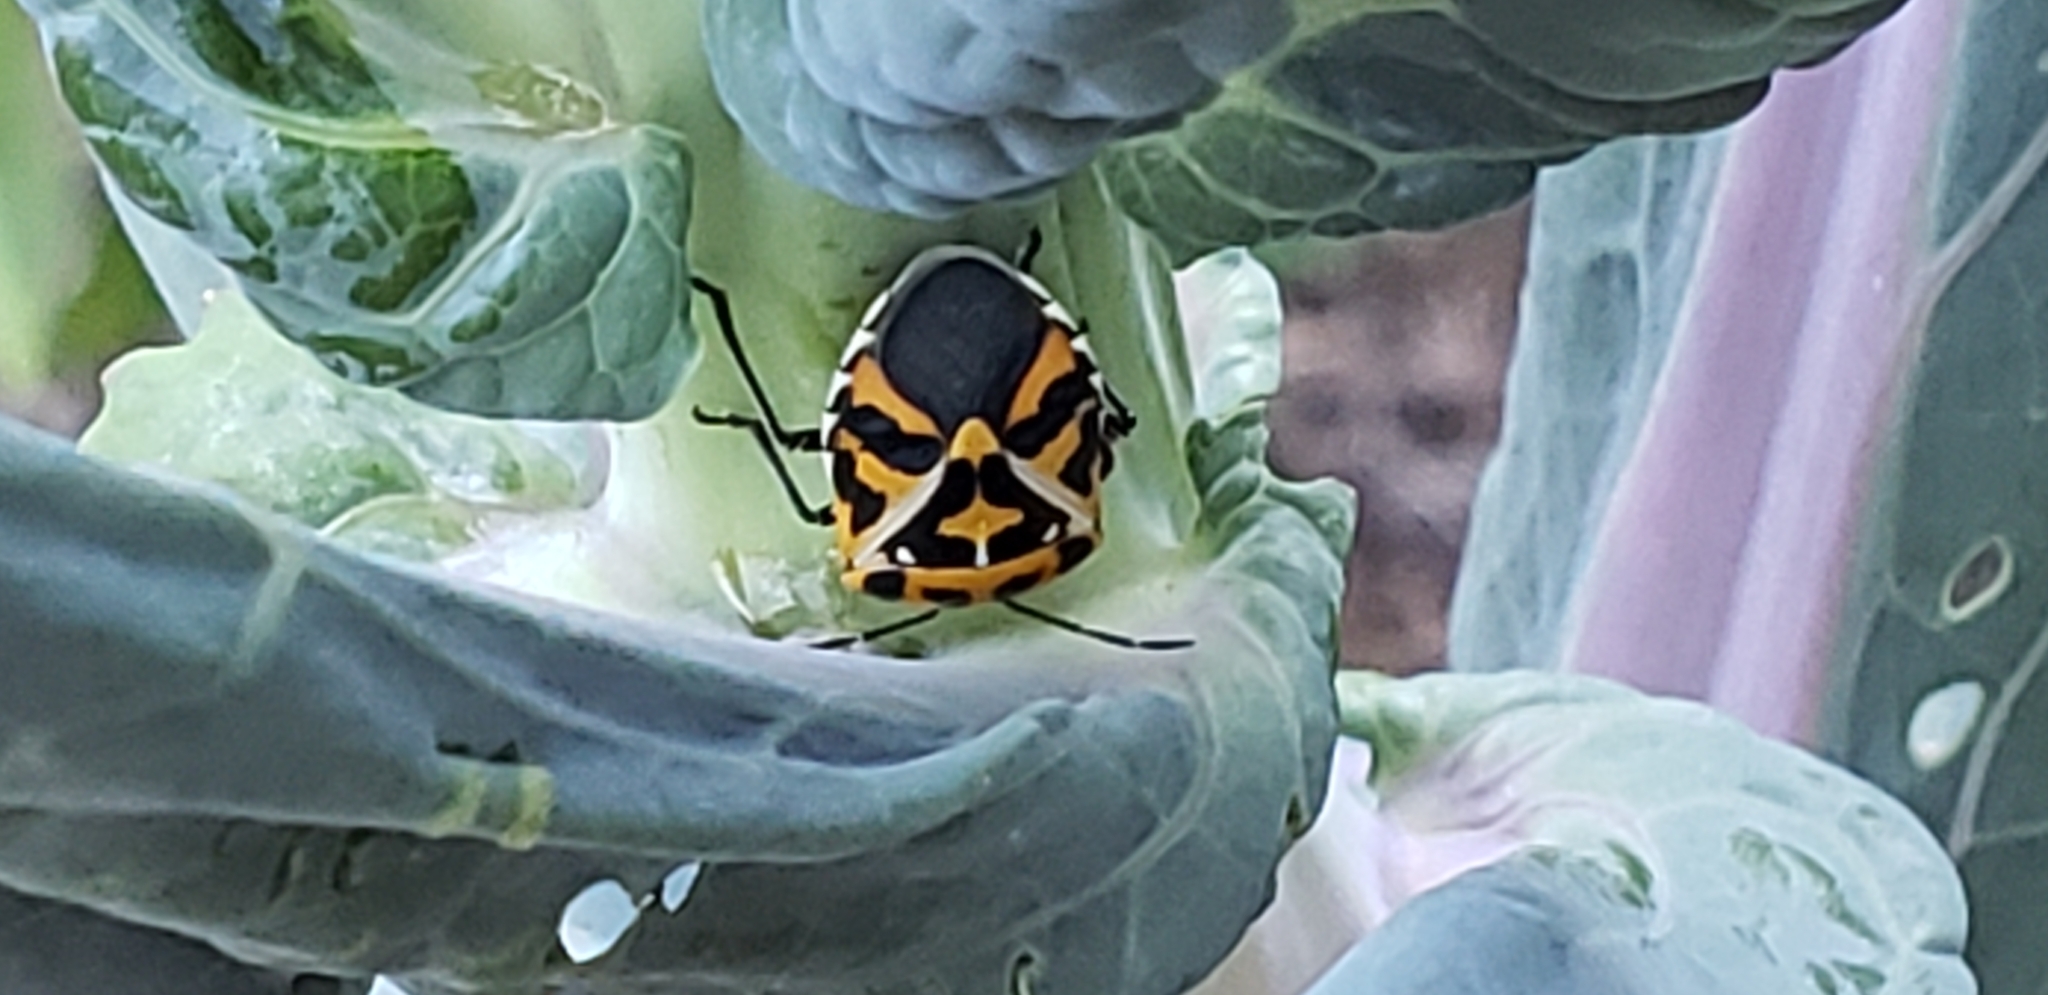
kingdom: Animalia
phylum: Arthropoda
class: Insecta
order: Hemiptera
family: Pentatomidae
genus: Murgantia
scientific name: Murgantia histrionica
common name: Harlequin bug
